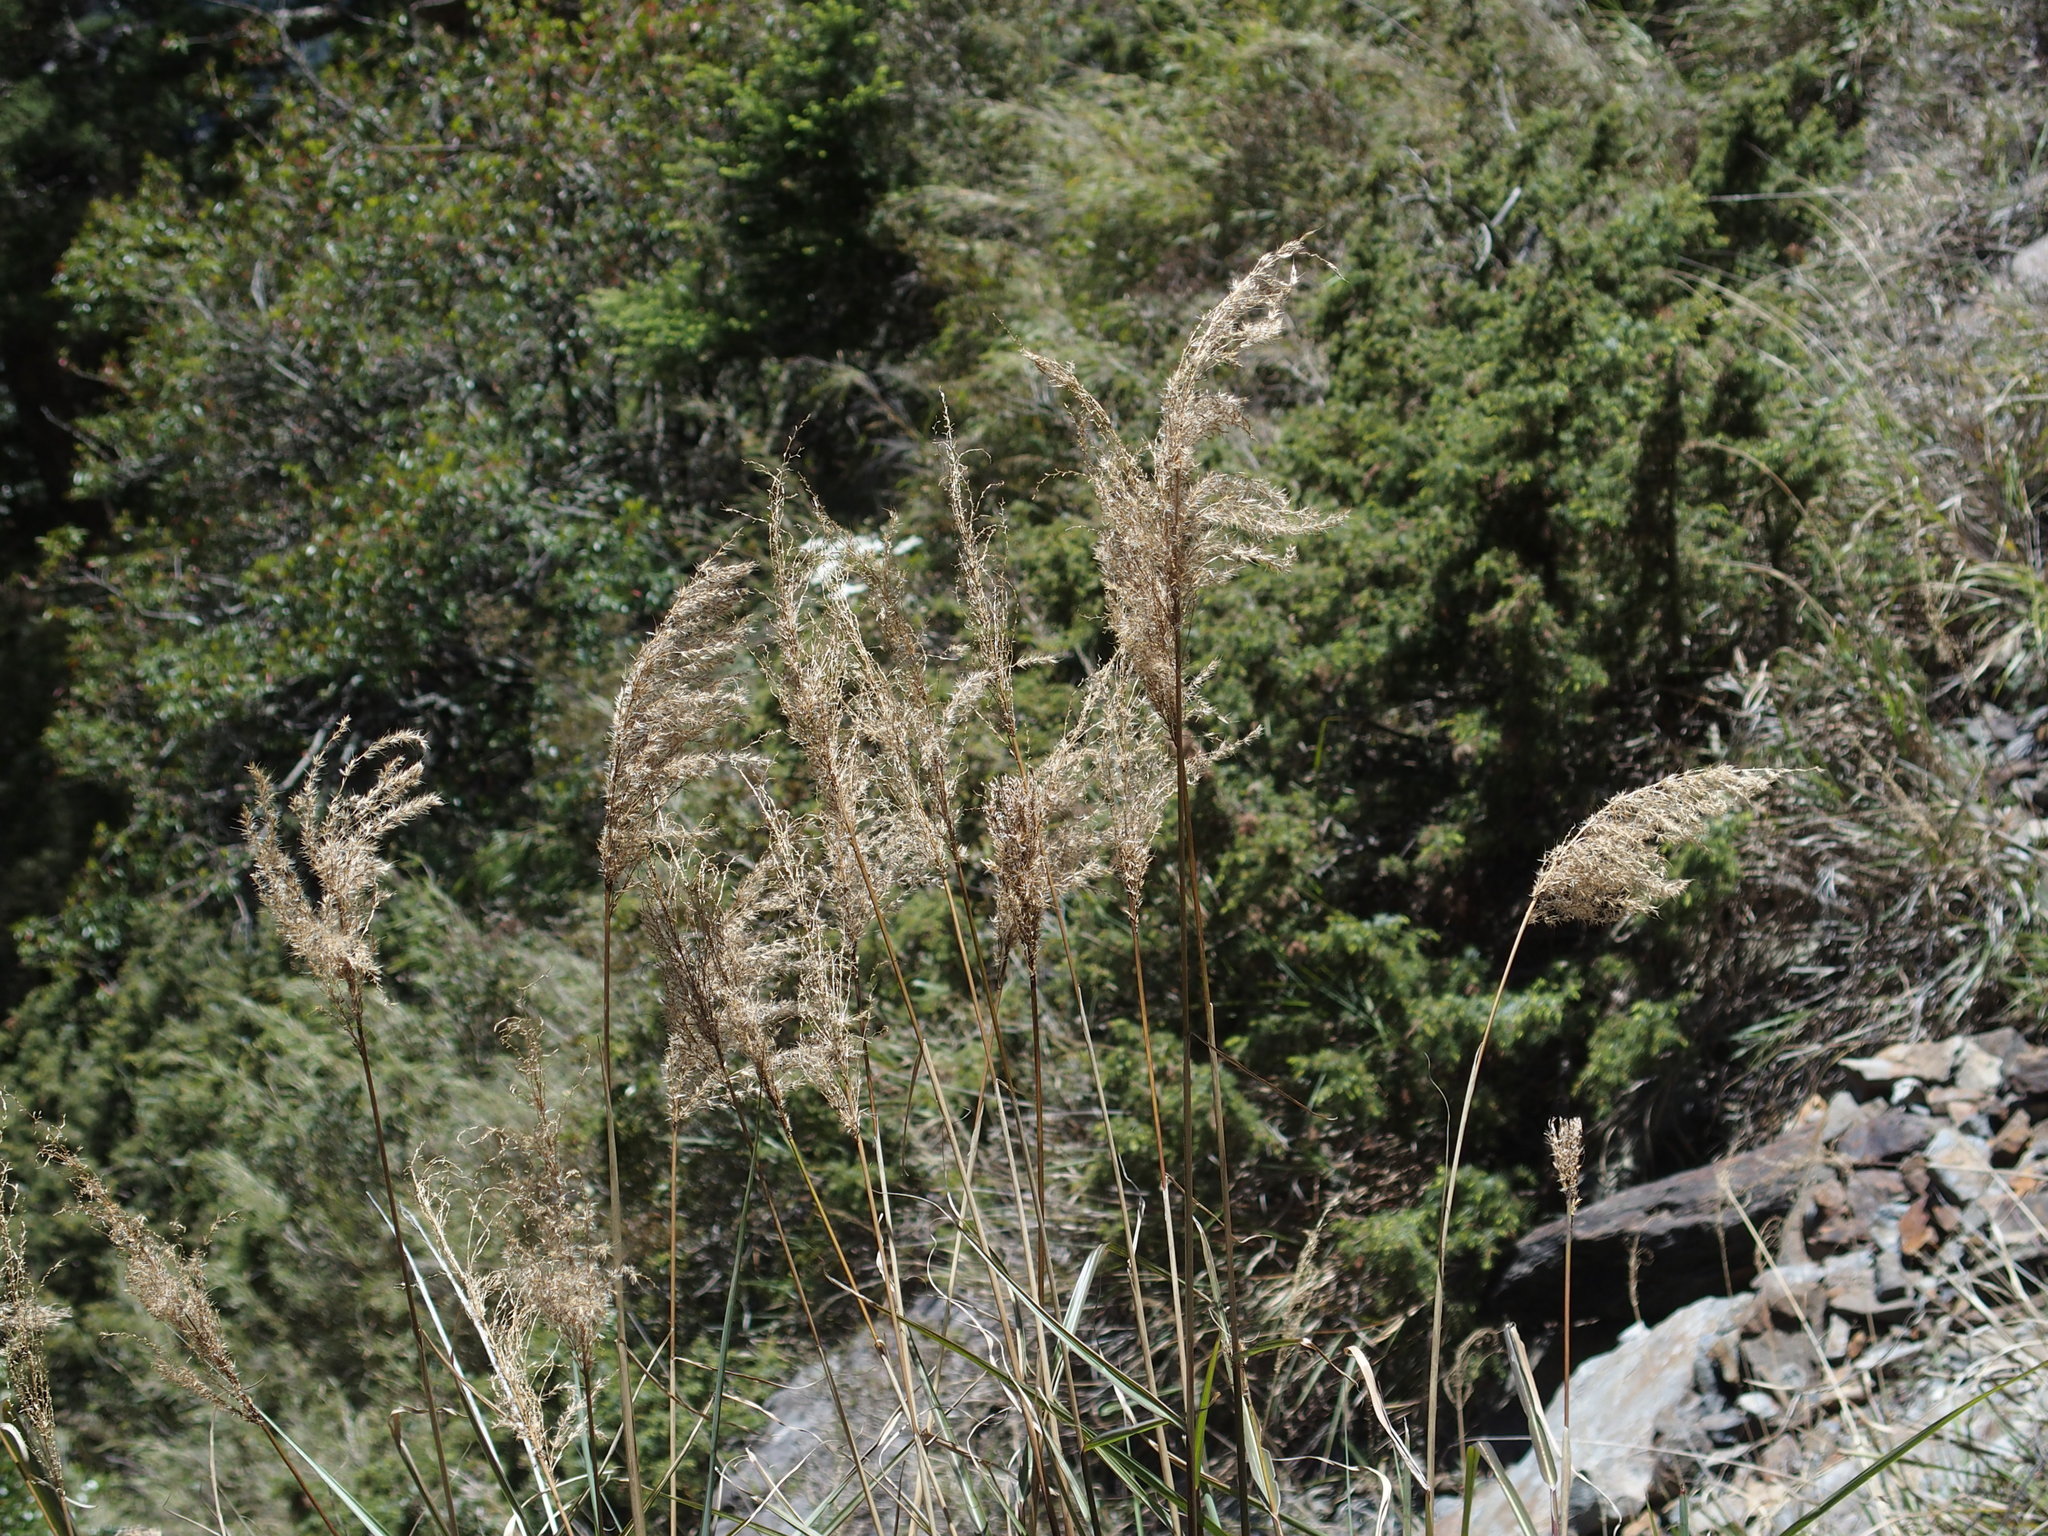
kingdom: Plantae
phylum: Tracheophyta
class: Liliopsida
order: Poales
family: Poaceae
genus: Miscanthus
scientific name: Miscanthus sinensis
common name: Chinese silvergrass
